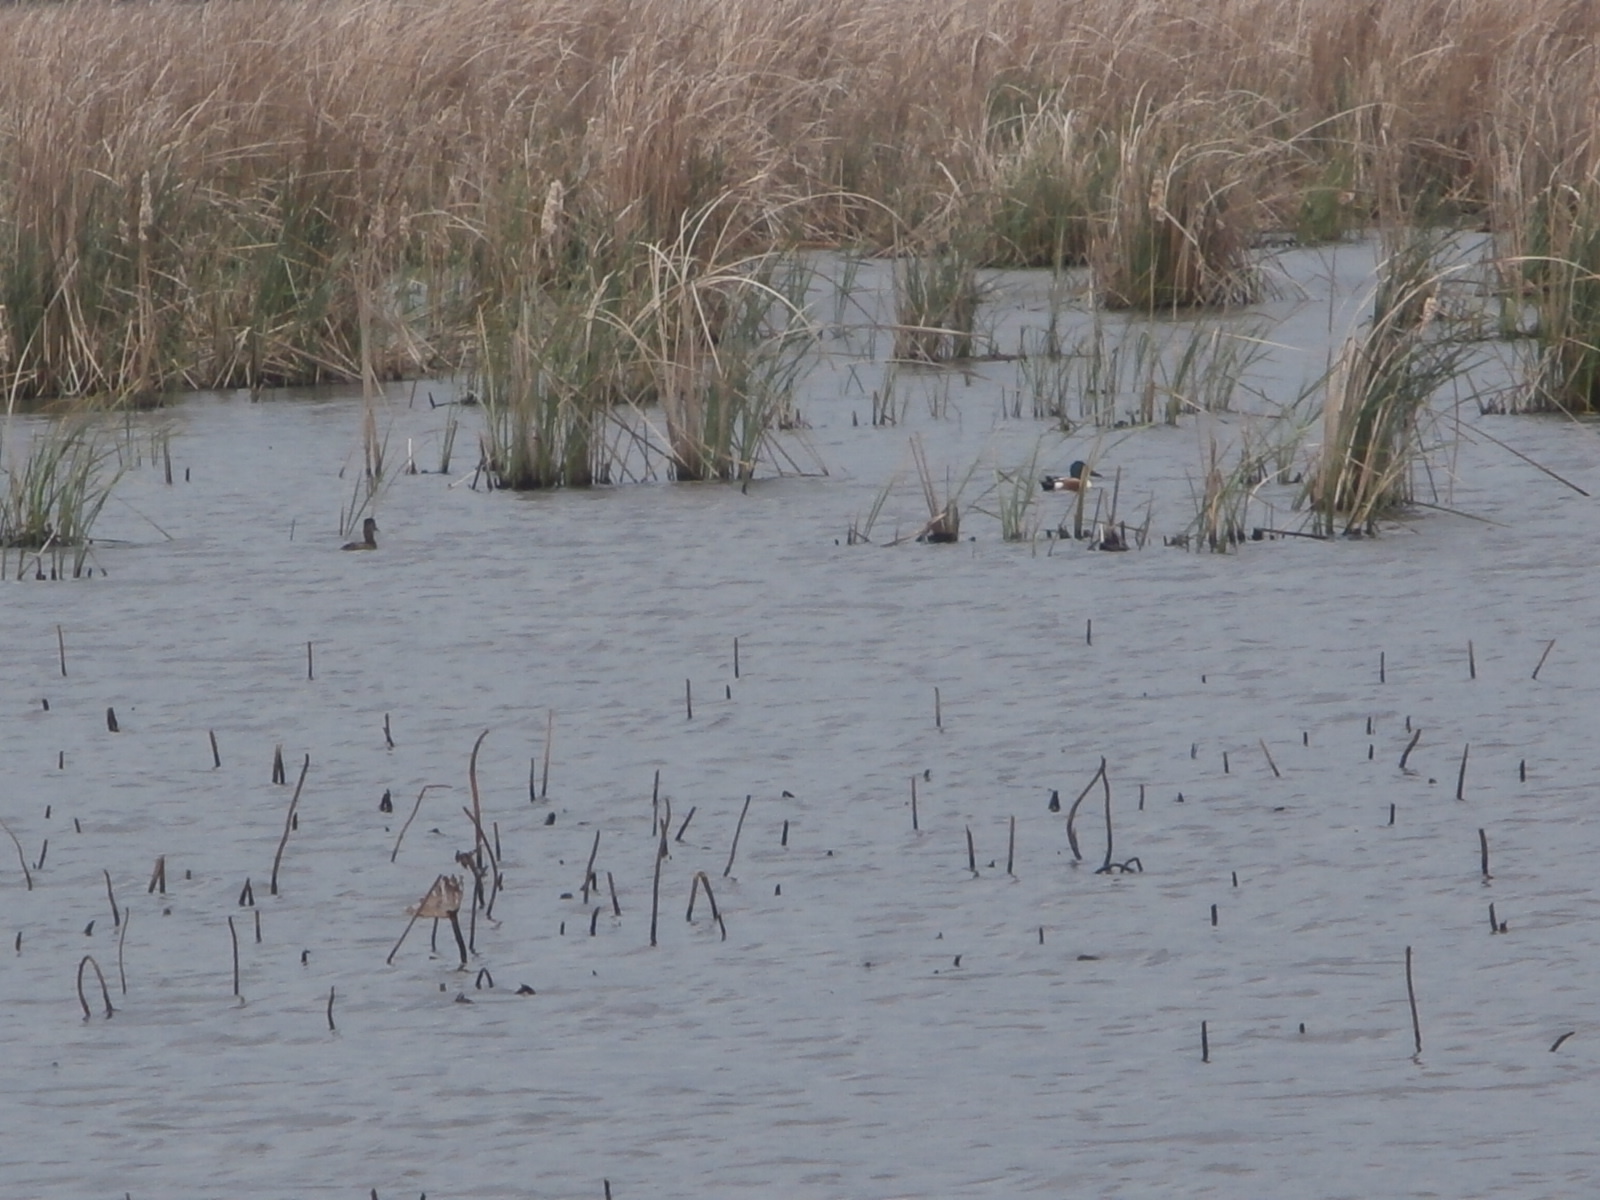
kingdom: Animalia
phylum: Chordata
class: Aves
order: Anseriformes
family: Anatidae
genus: Spatula
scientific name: Spatula clypeata
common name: Northern shoveler
